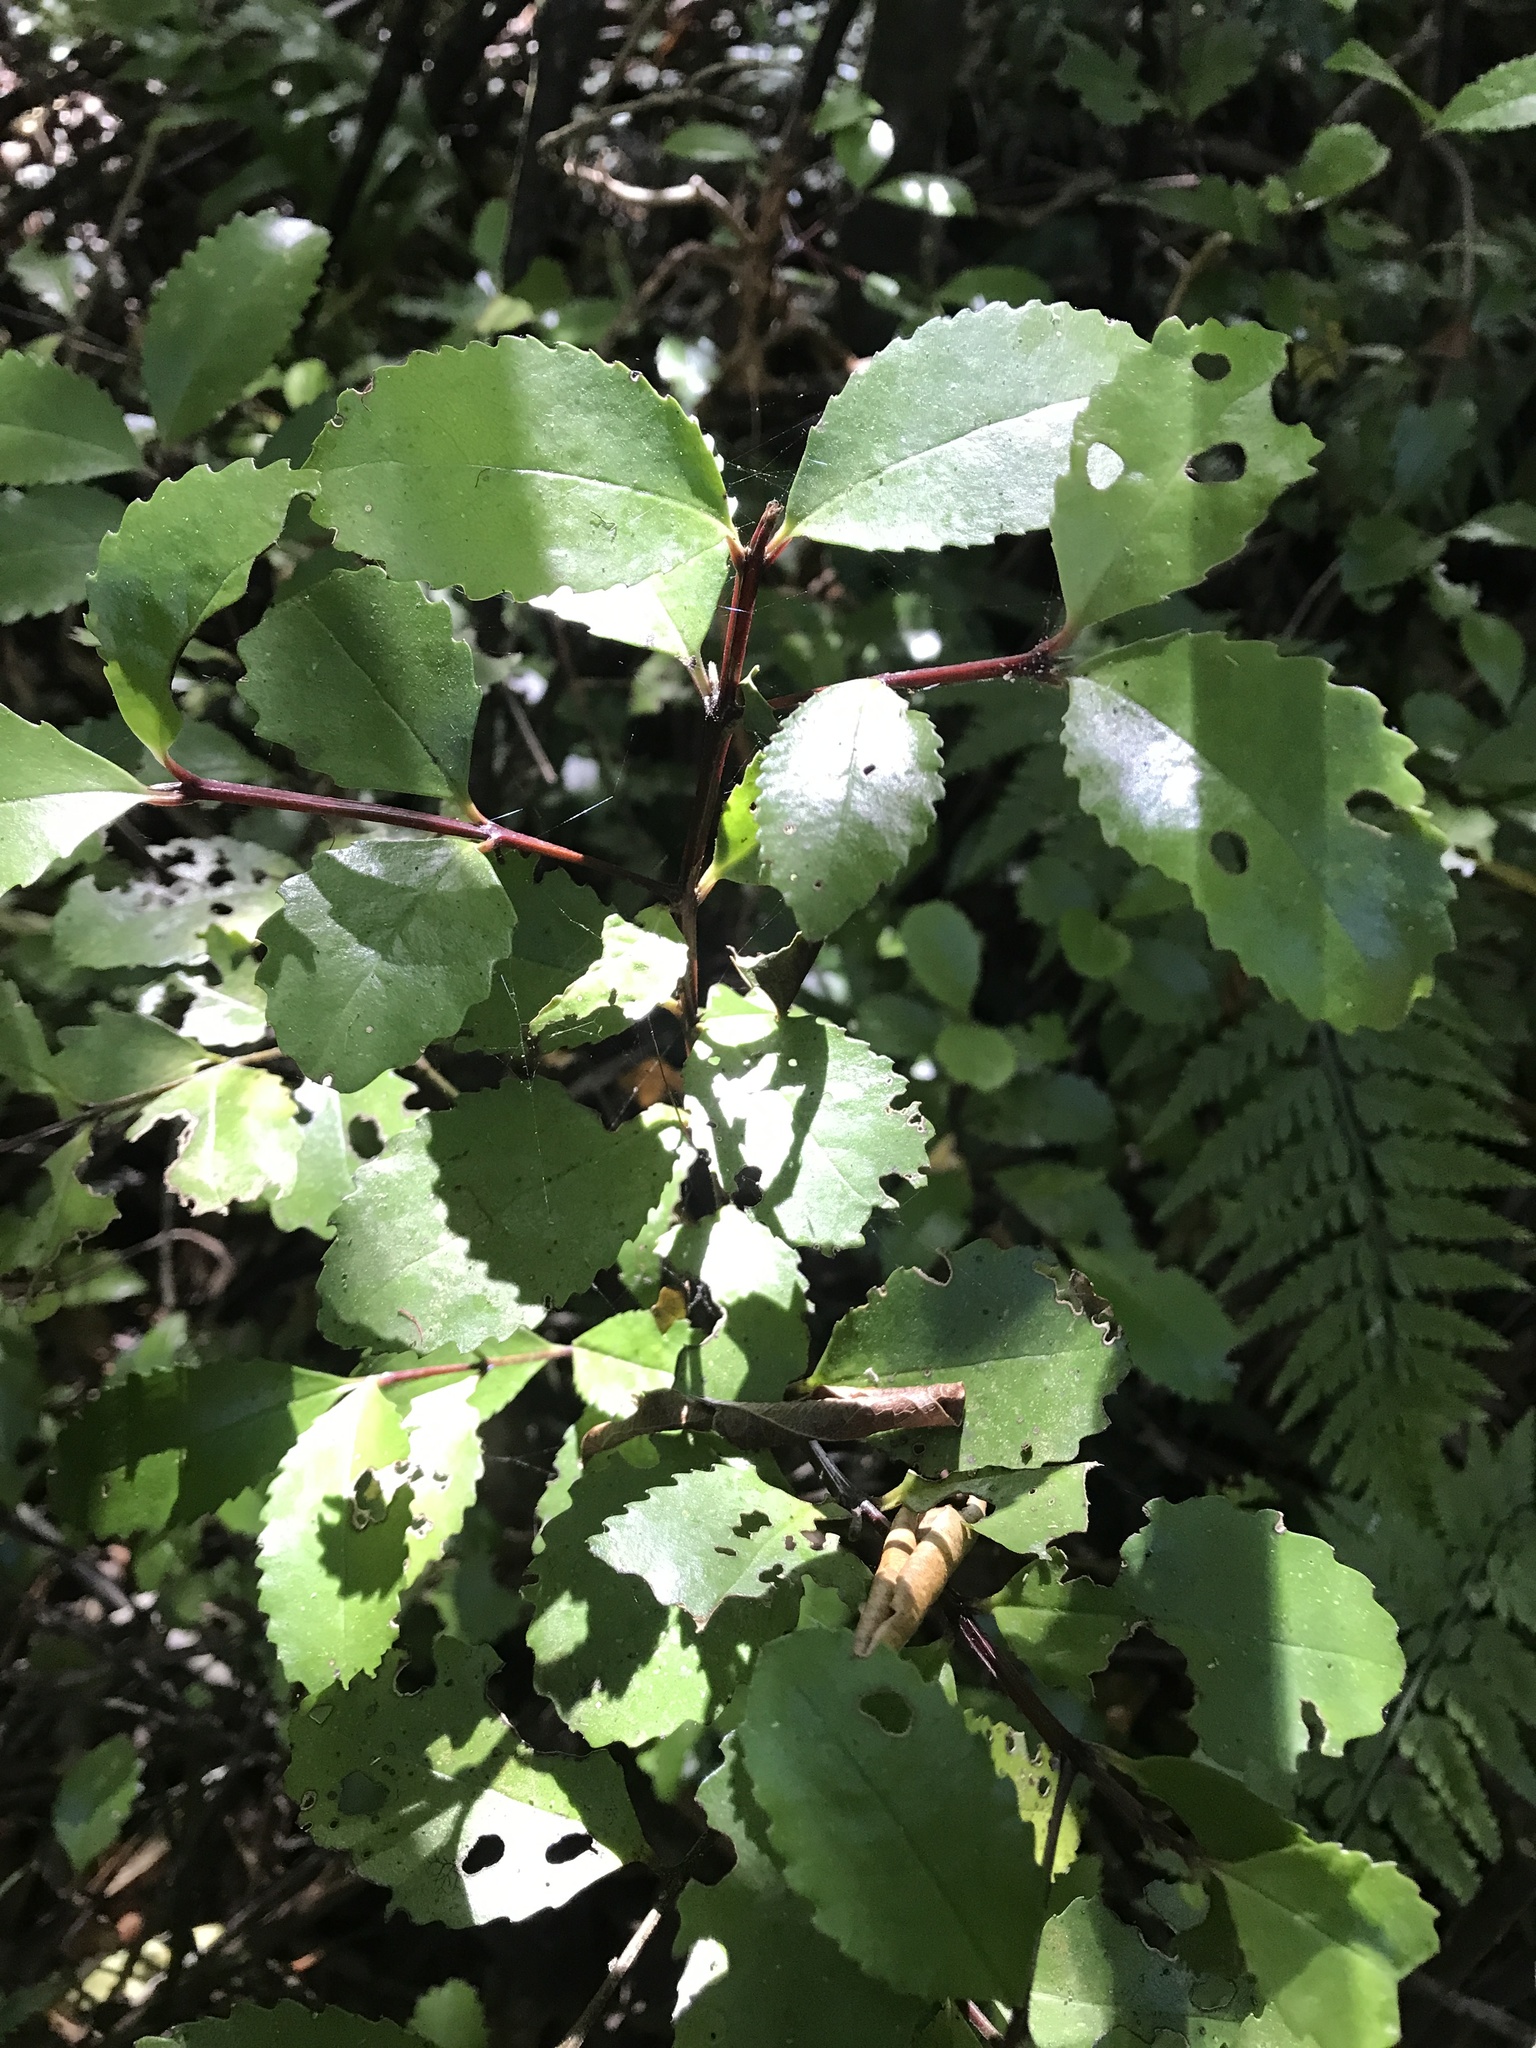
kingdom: Plantae
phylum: Tracheophyta
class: Magnoliopsida
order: Laurales
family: Atherospermataceae
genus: Laurelia
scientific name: Laurelia novae-zelandiae
